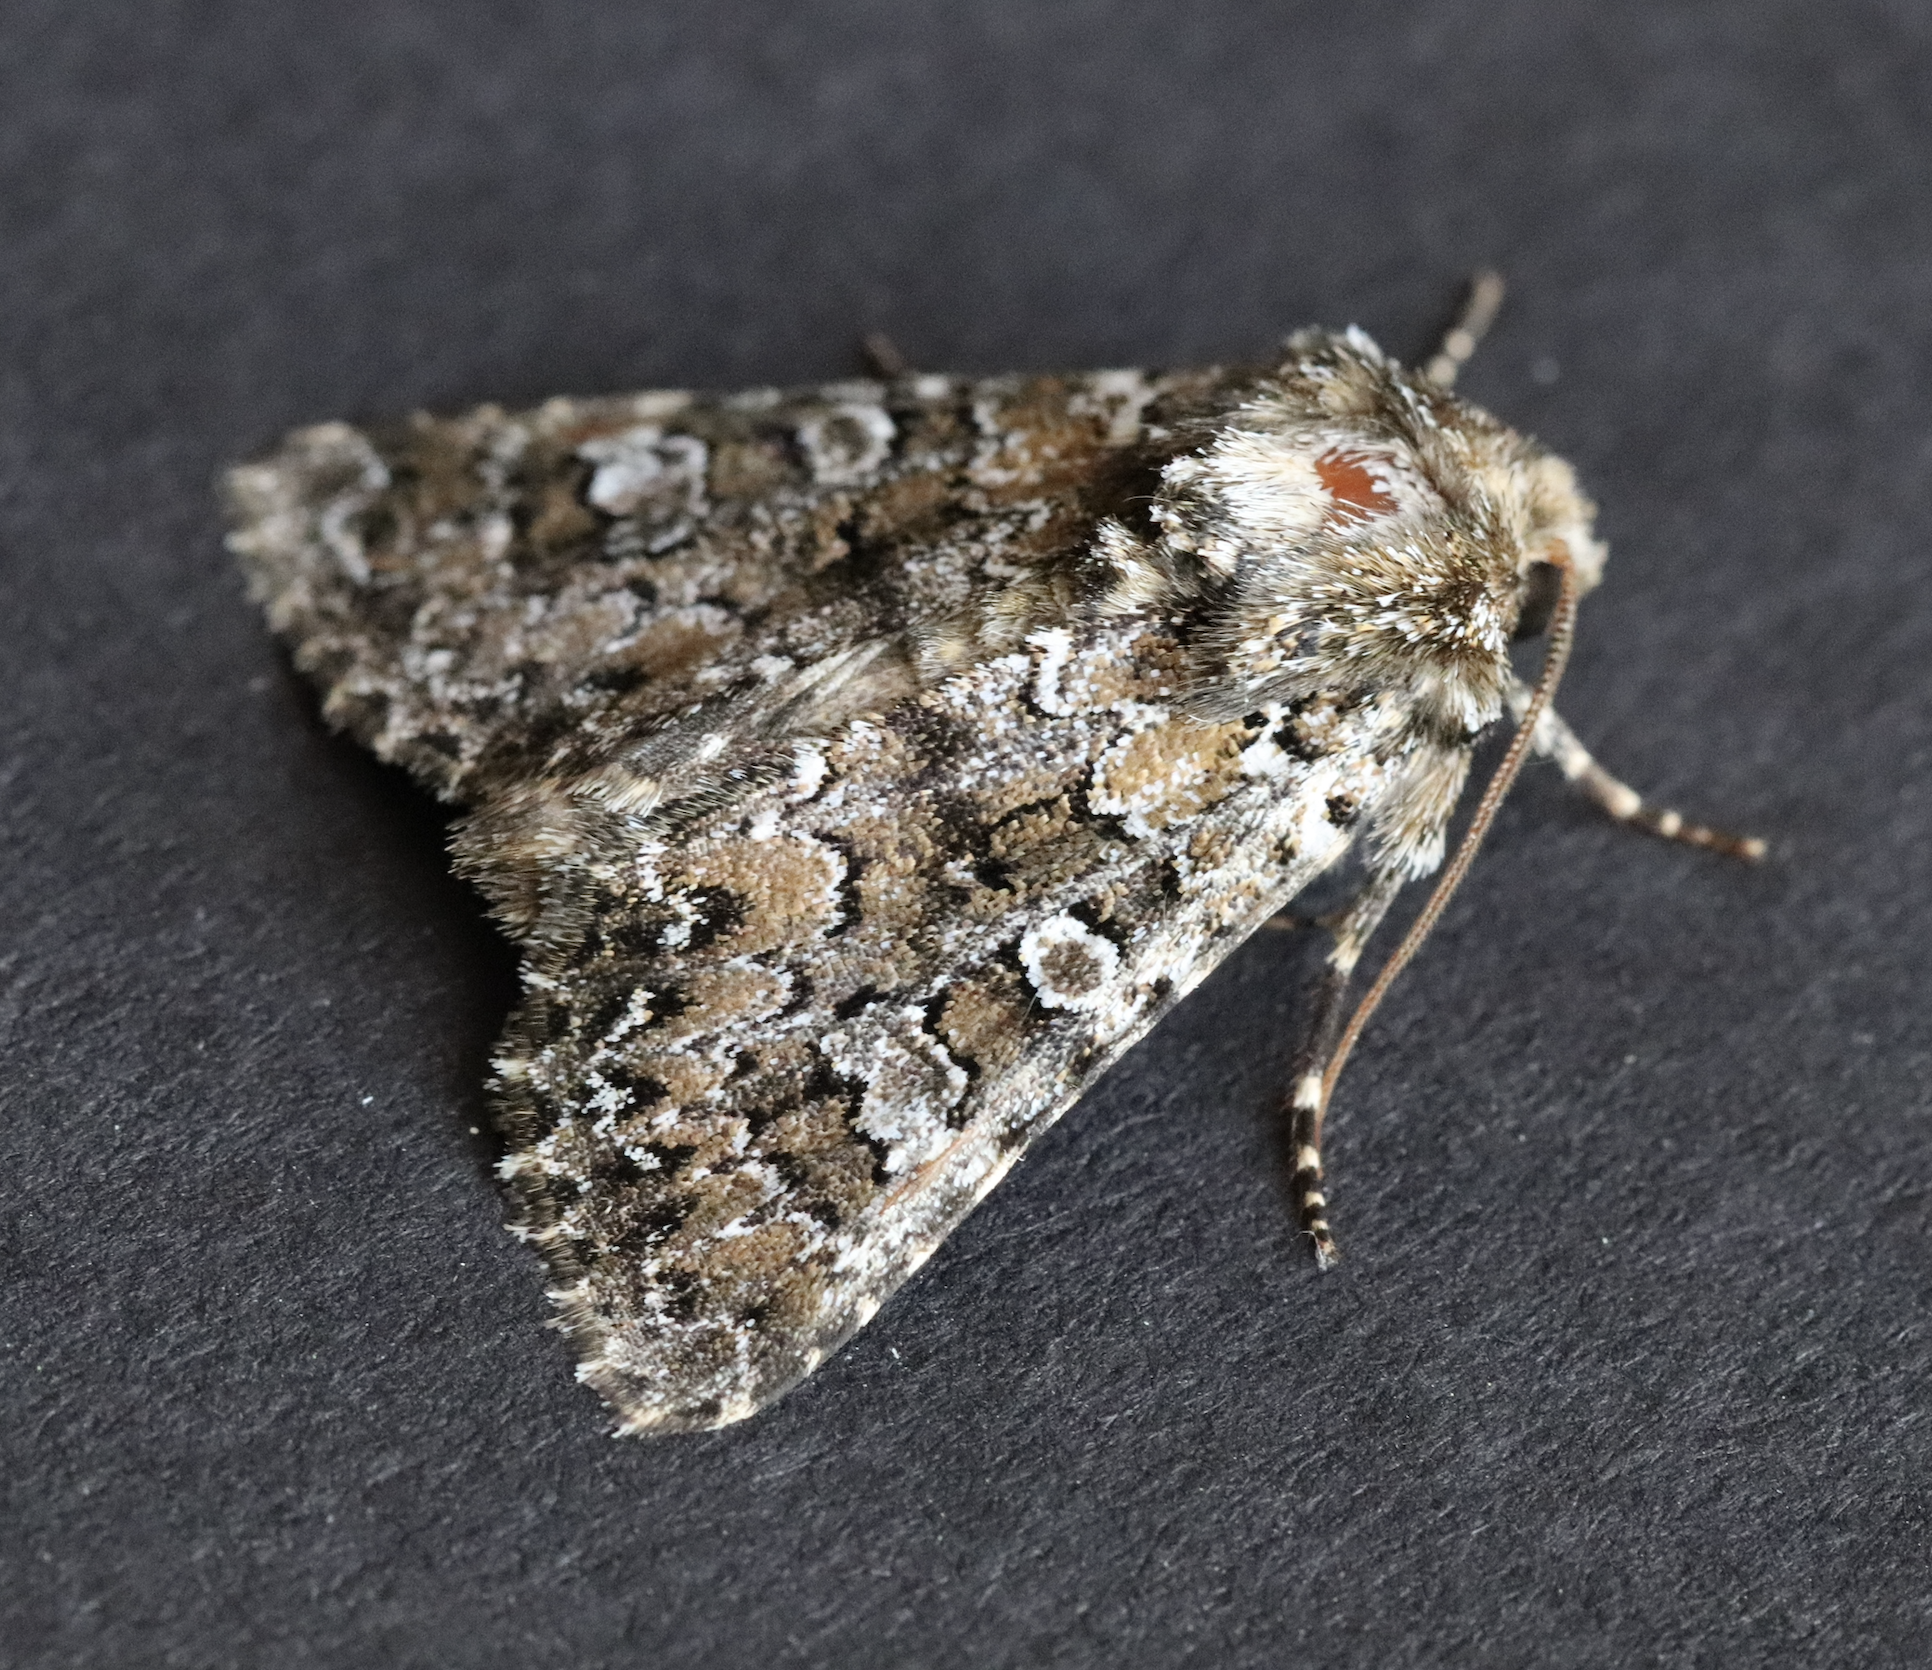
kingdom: Animalia
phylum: Arthropoda
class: Insecta
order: Lepidoptera
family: Noctuidae
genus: Hadena
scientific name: Hadena magnolii
